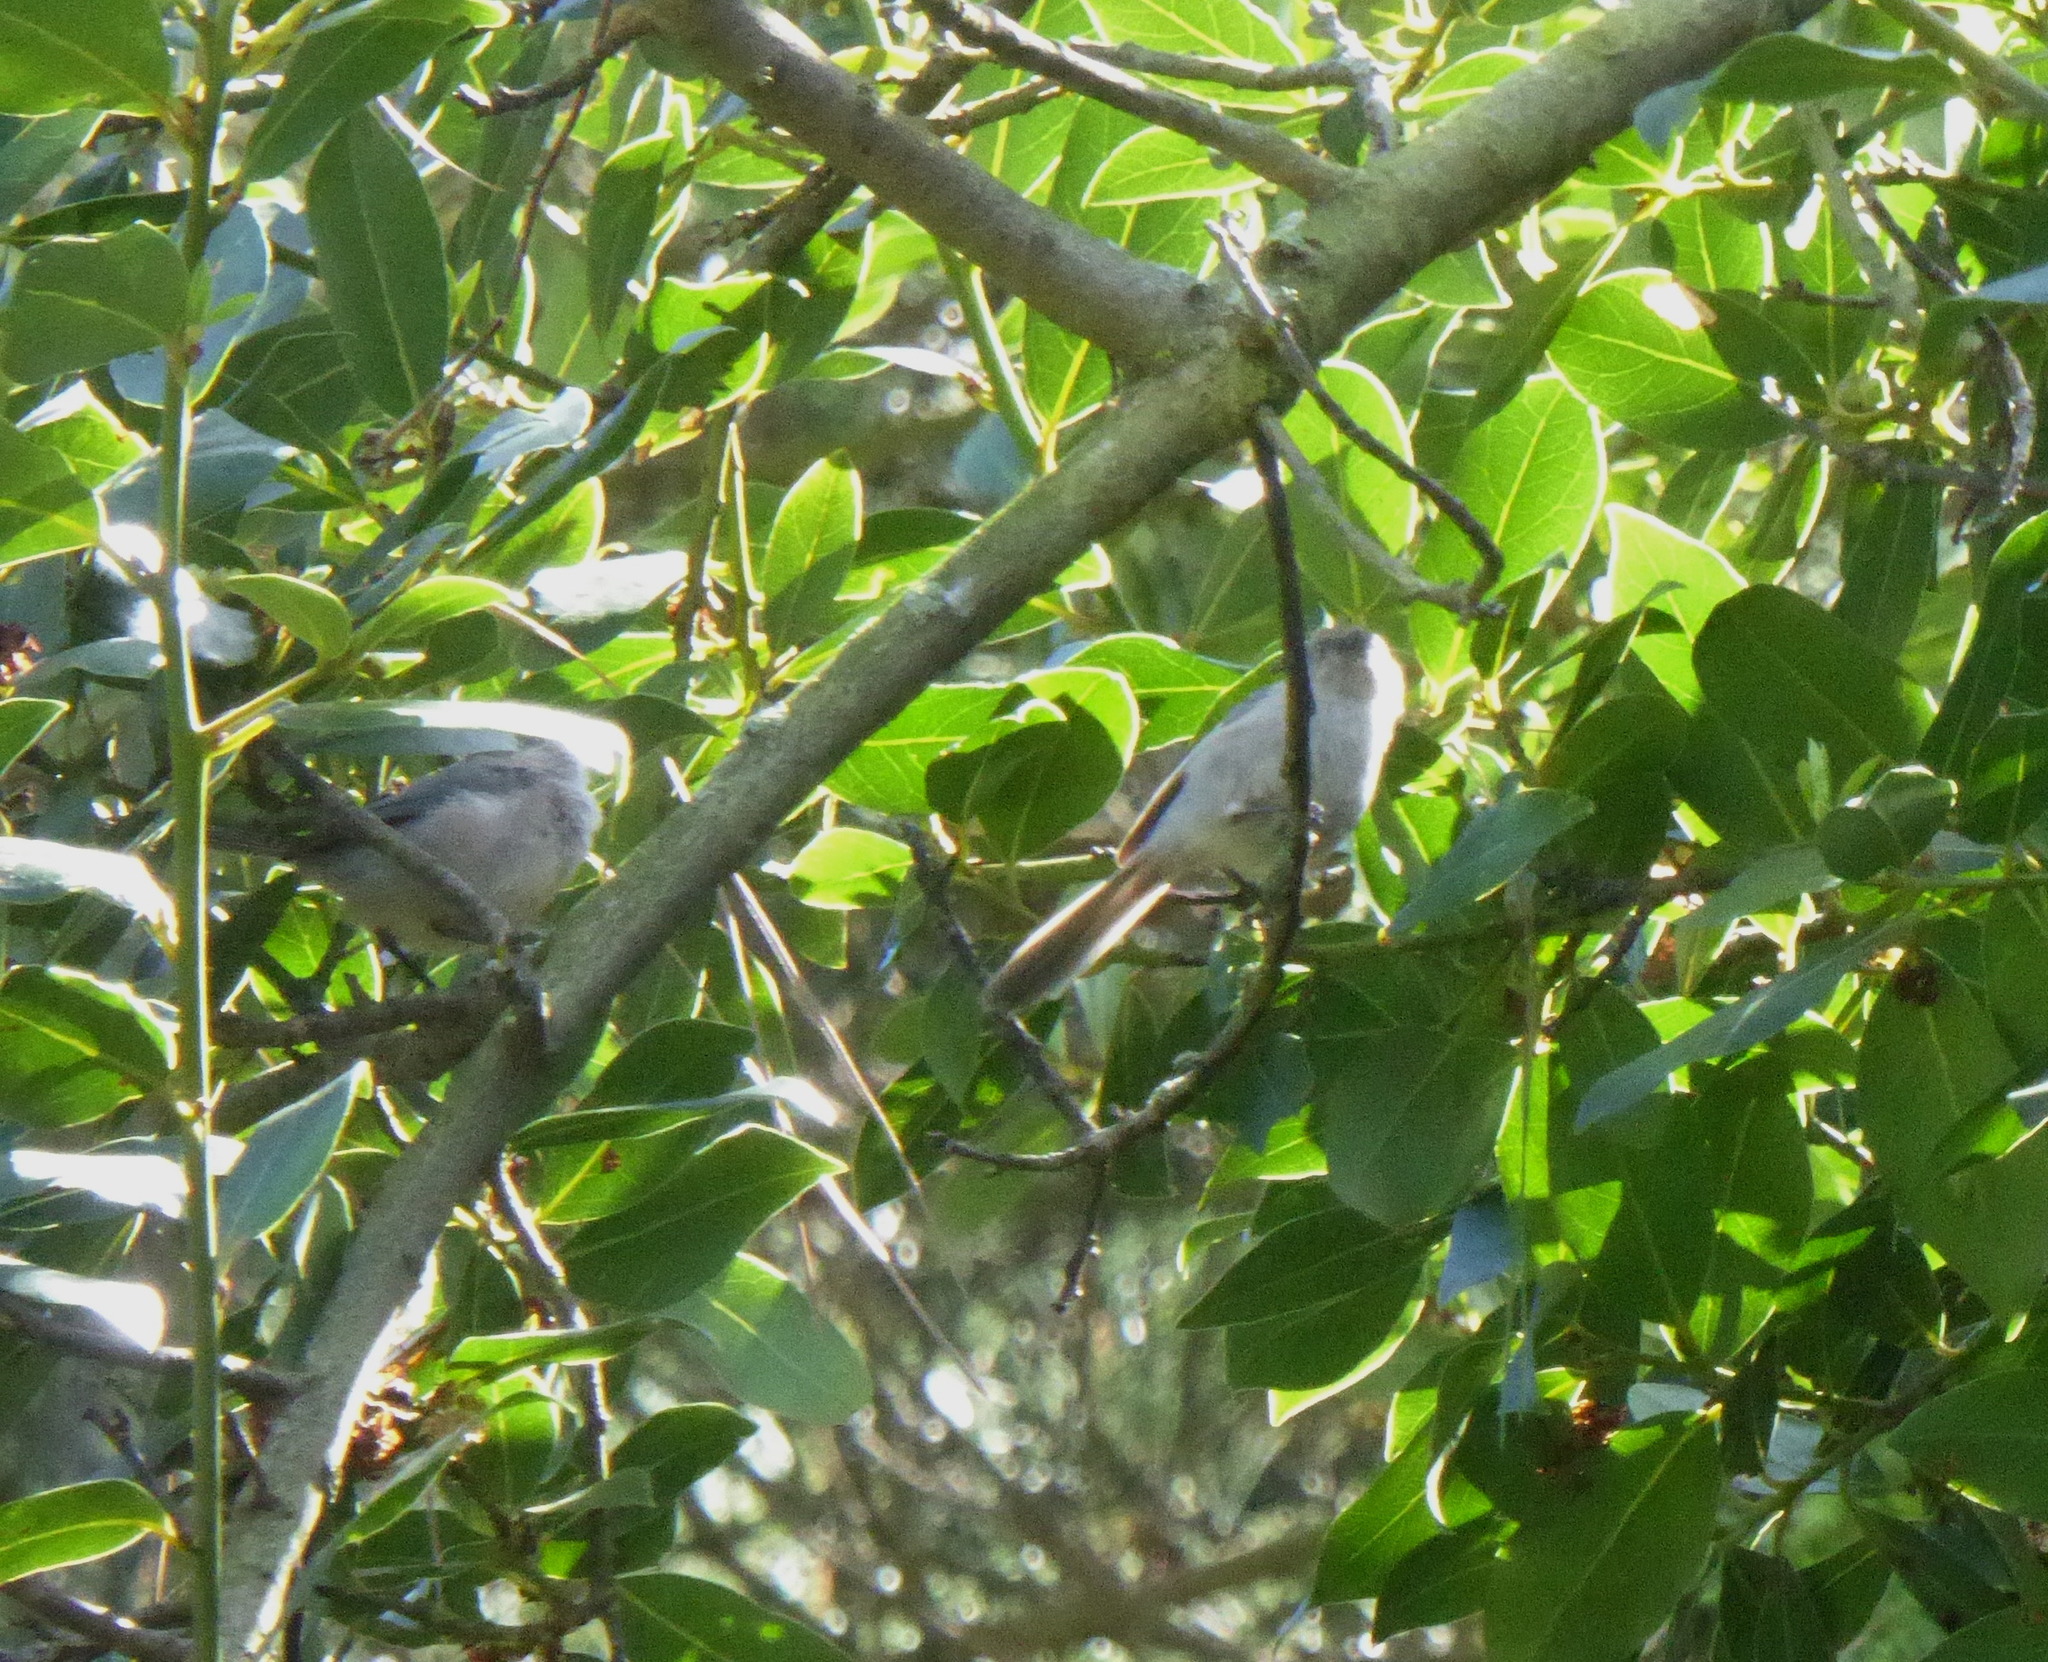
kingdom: Animalia
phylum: Chordata
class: Aves
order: Passeriformes
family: Aegithalidae
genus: Psaltriparus
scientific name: Psaltriparus minimus
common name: American bushtit
